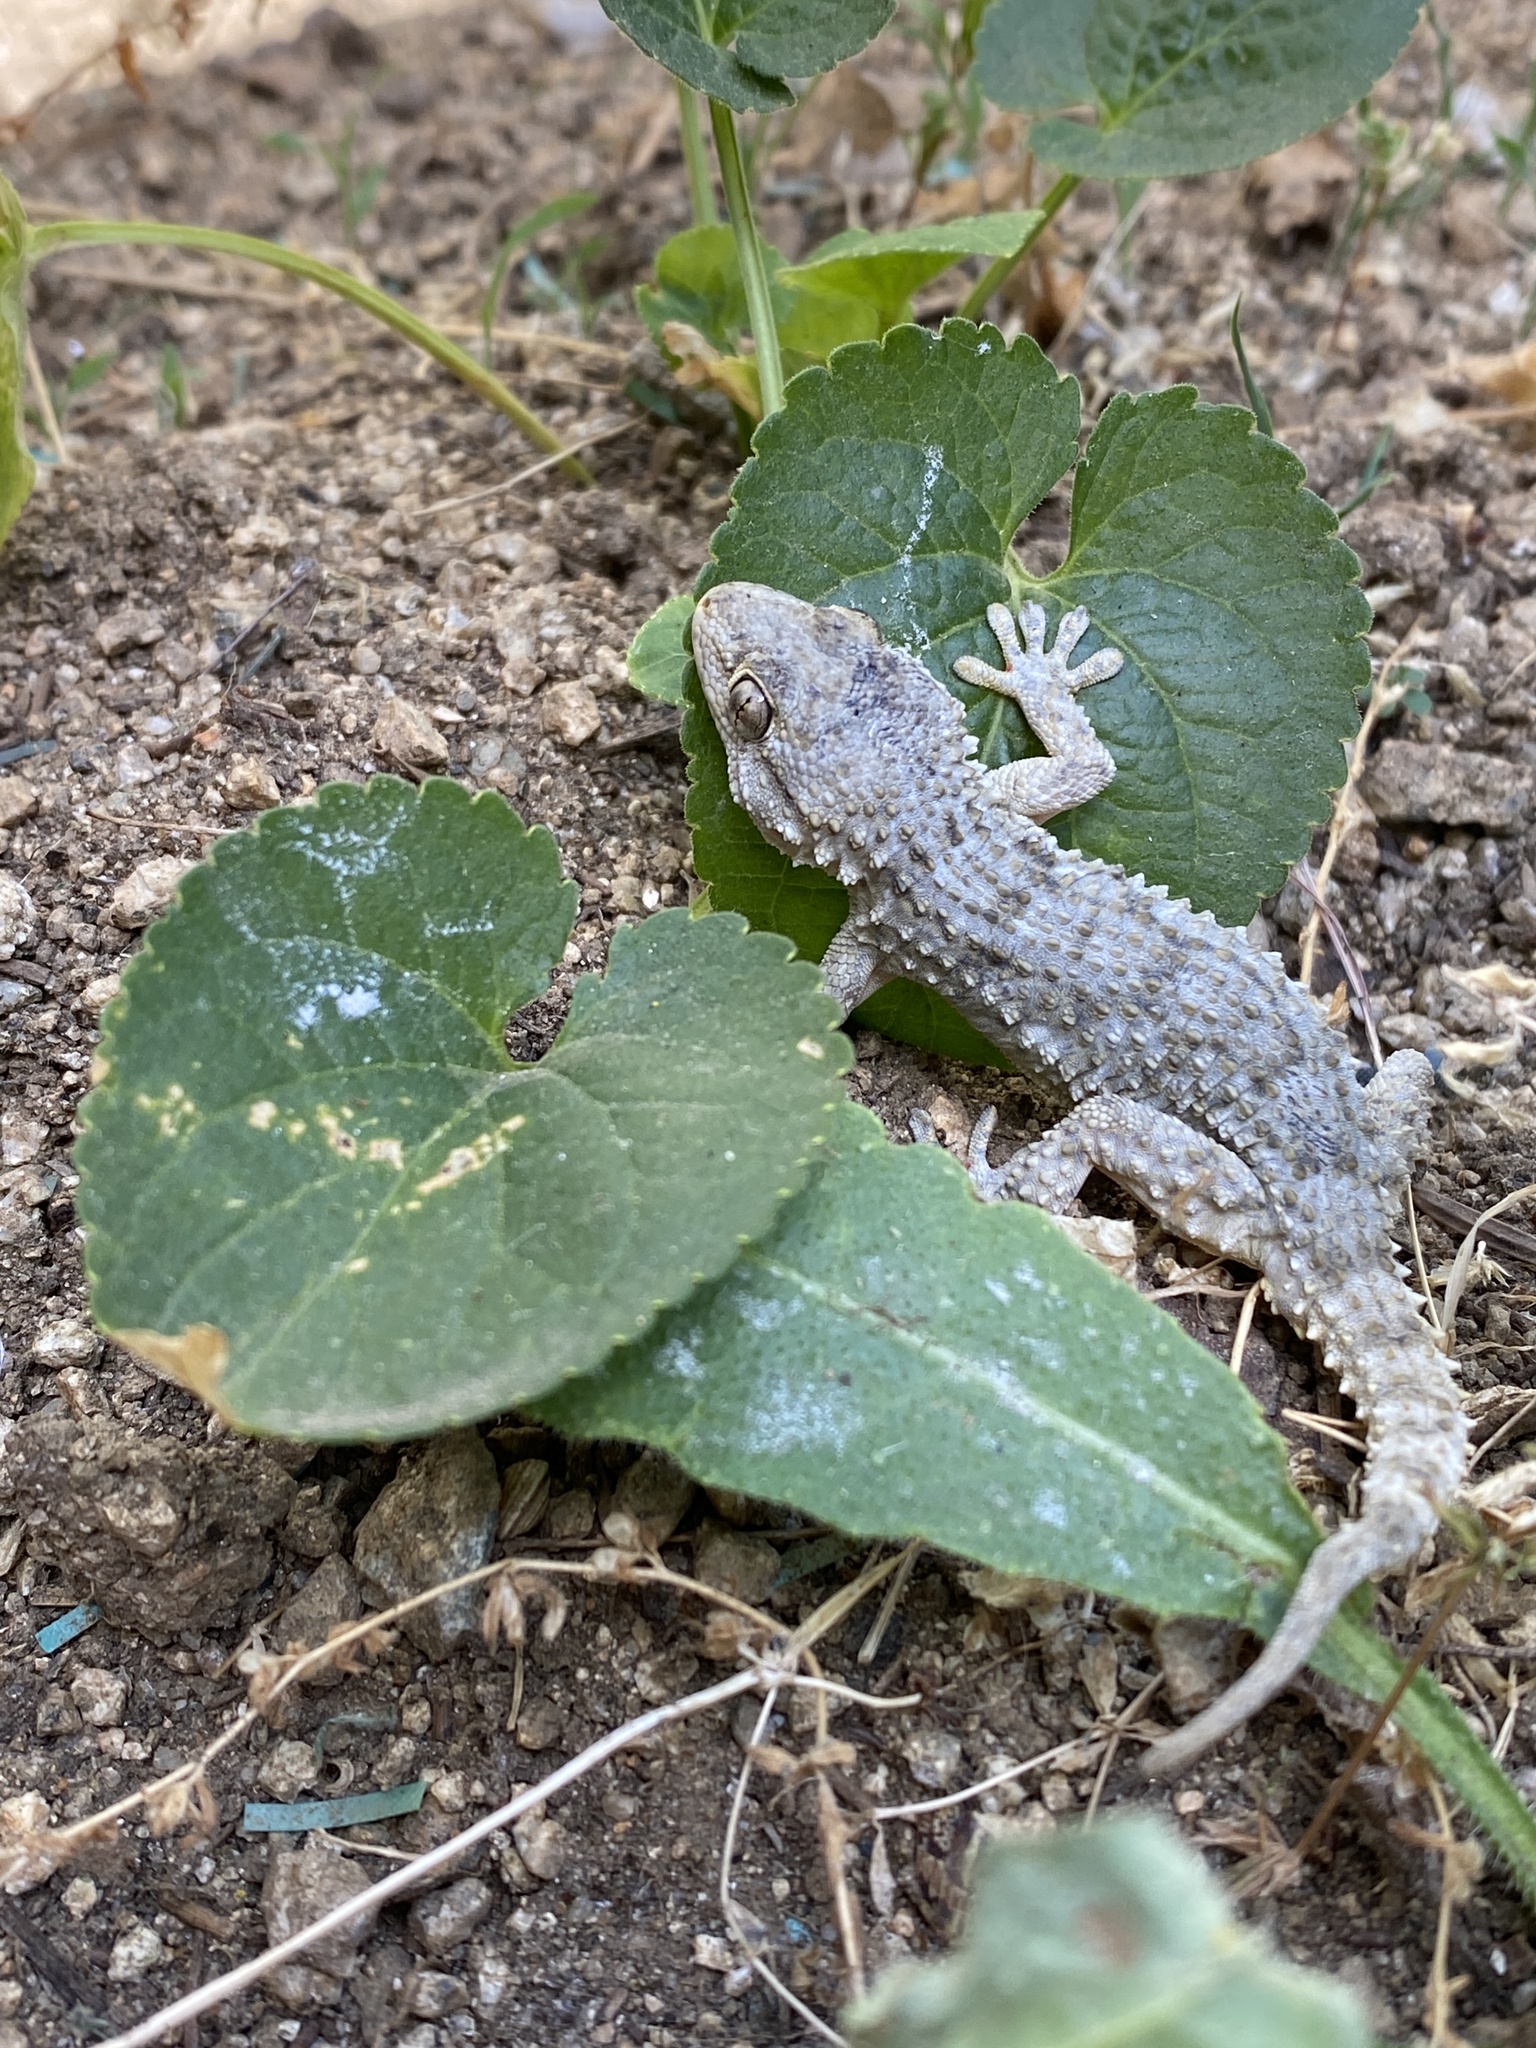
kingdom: Animalia
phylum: Chordata
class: Squamata
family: Phyllodactylidae
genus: Tarentola
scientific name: Tarentola mauritanica
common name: Moorish gecko
